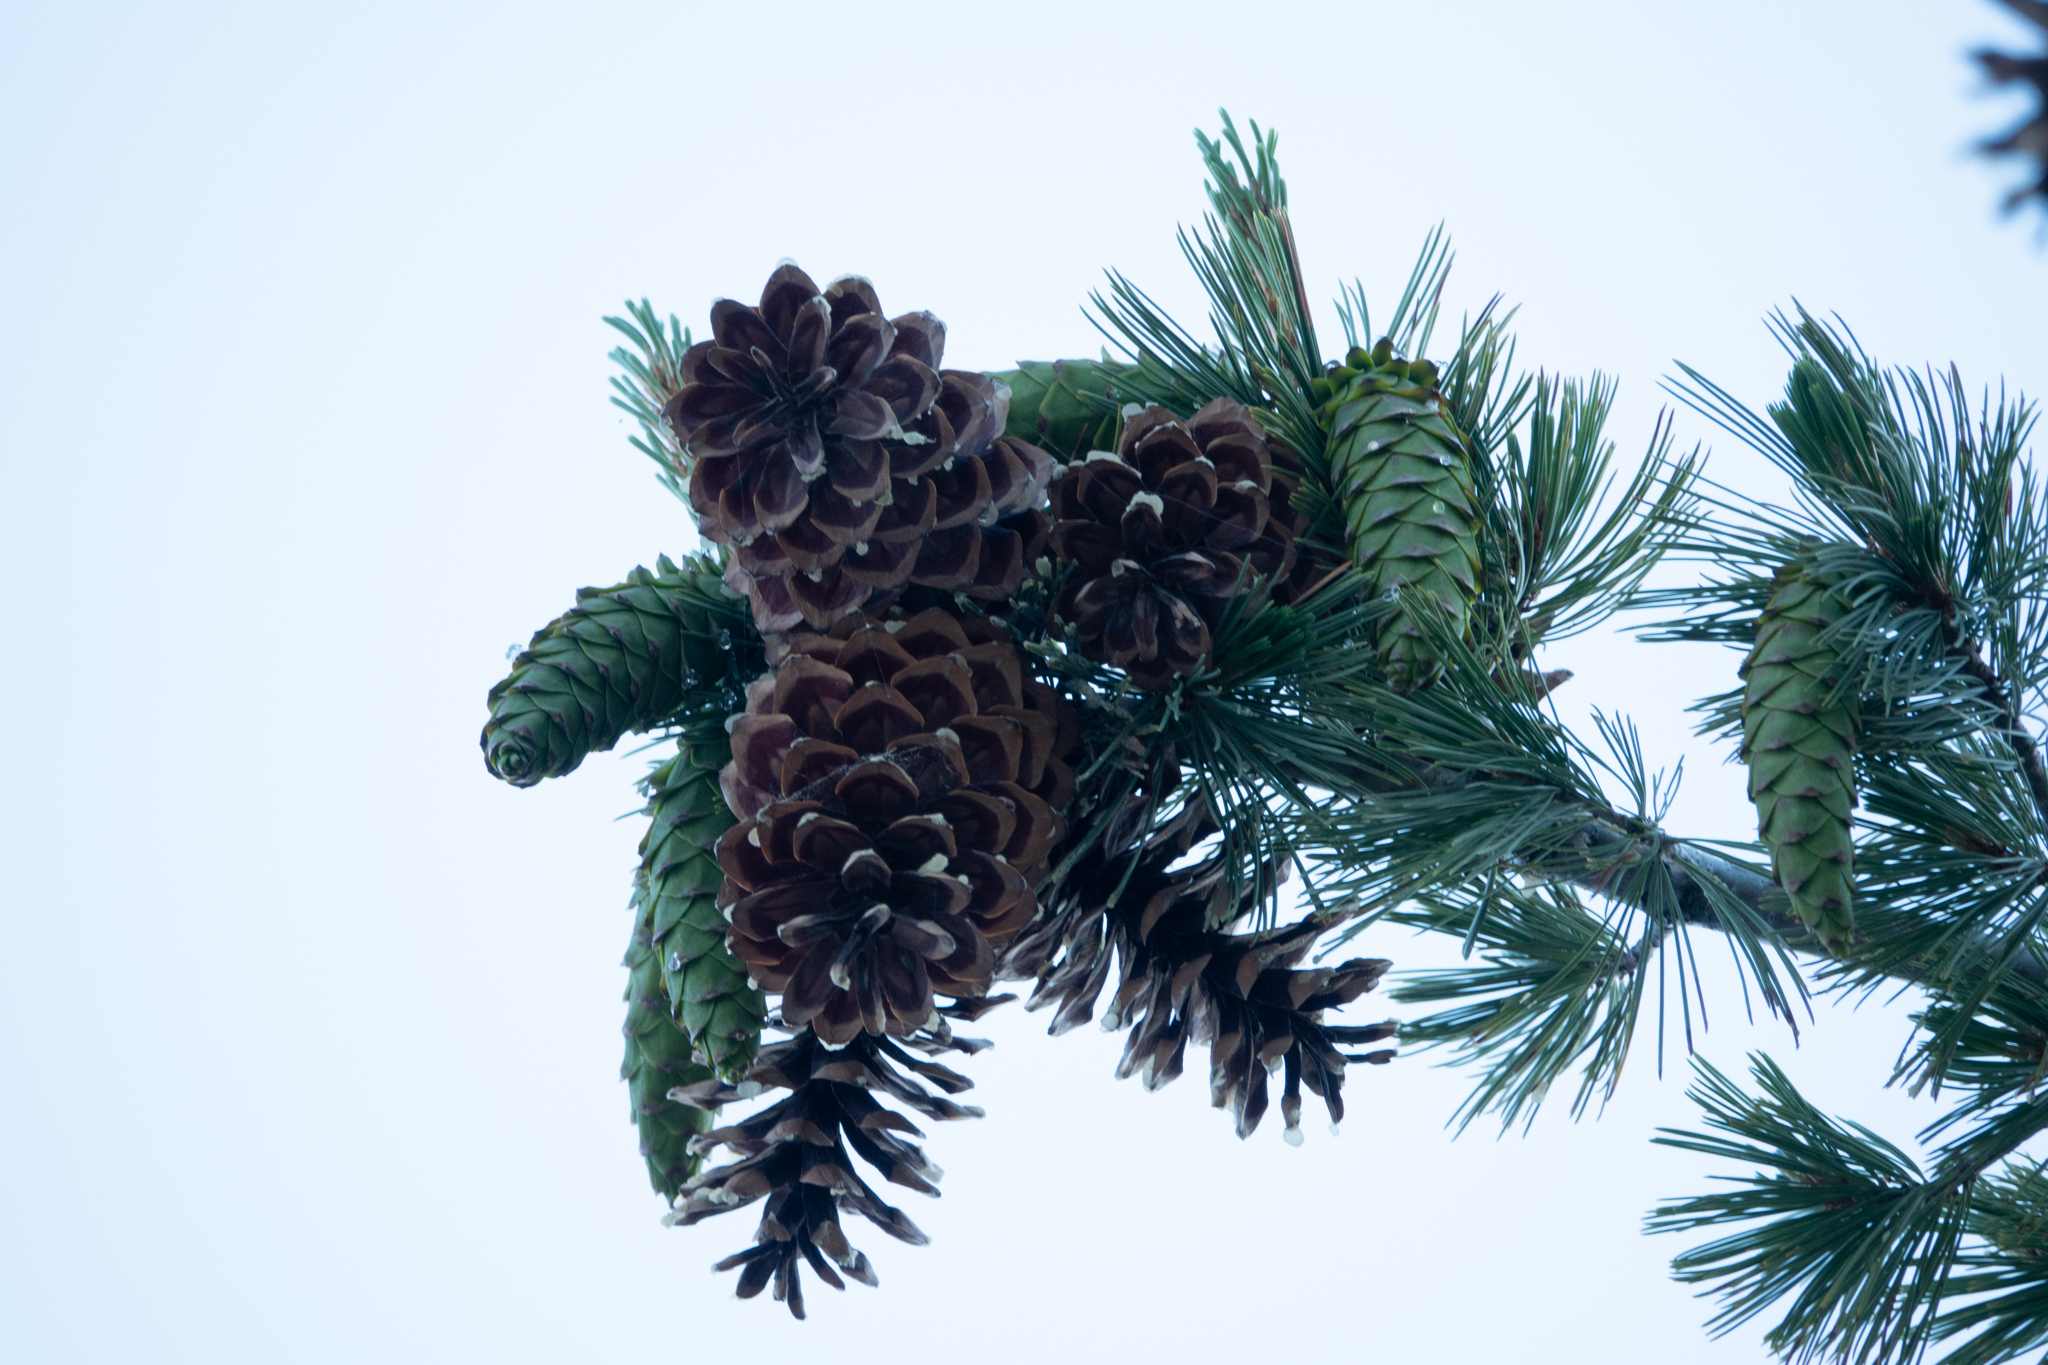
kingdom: Plantae
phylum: Tracheophyta
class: Pinopsida
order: Pinales
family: Pinaceae
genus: Pinus
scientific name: Pinus monticola
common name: Western white pine
